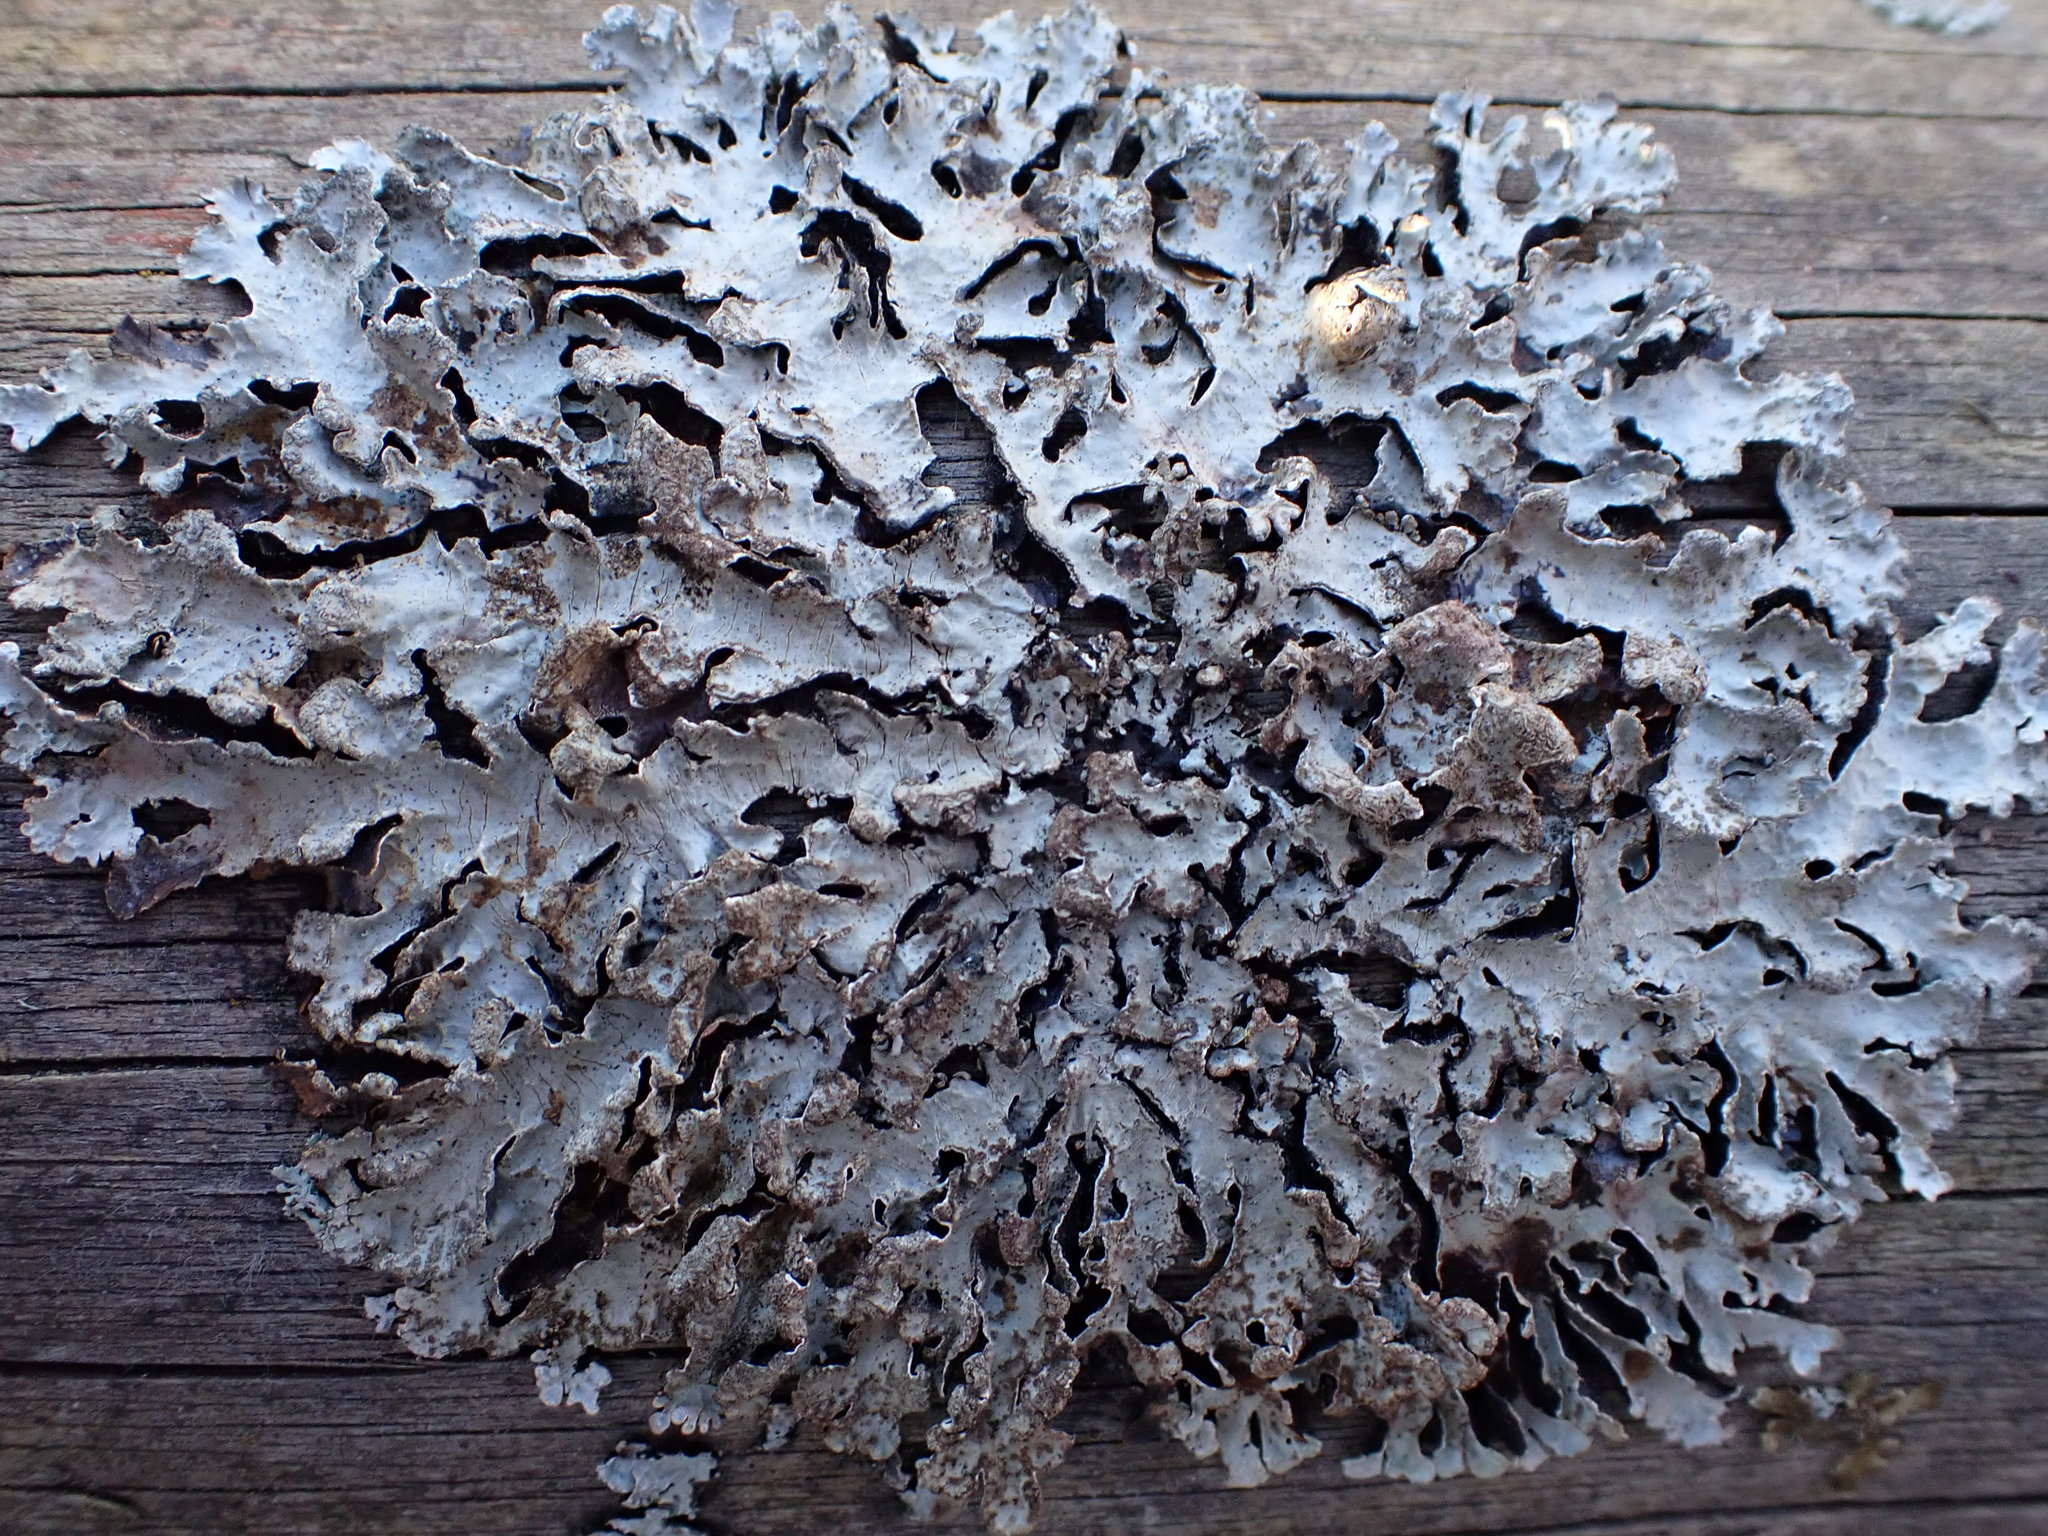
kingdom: Fungi
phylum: Ascomycota
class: Lecanoromycetes
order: Lecanorales
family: Parmeliaceae
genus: Parmelia
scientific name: Parmelia sulcata
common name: Netted shield lichen
